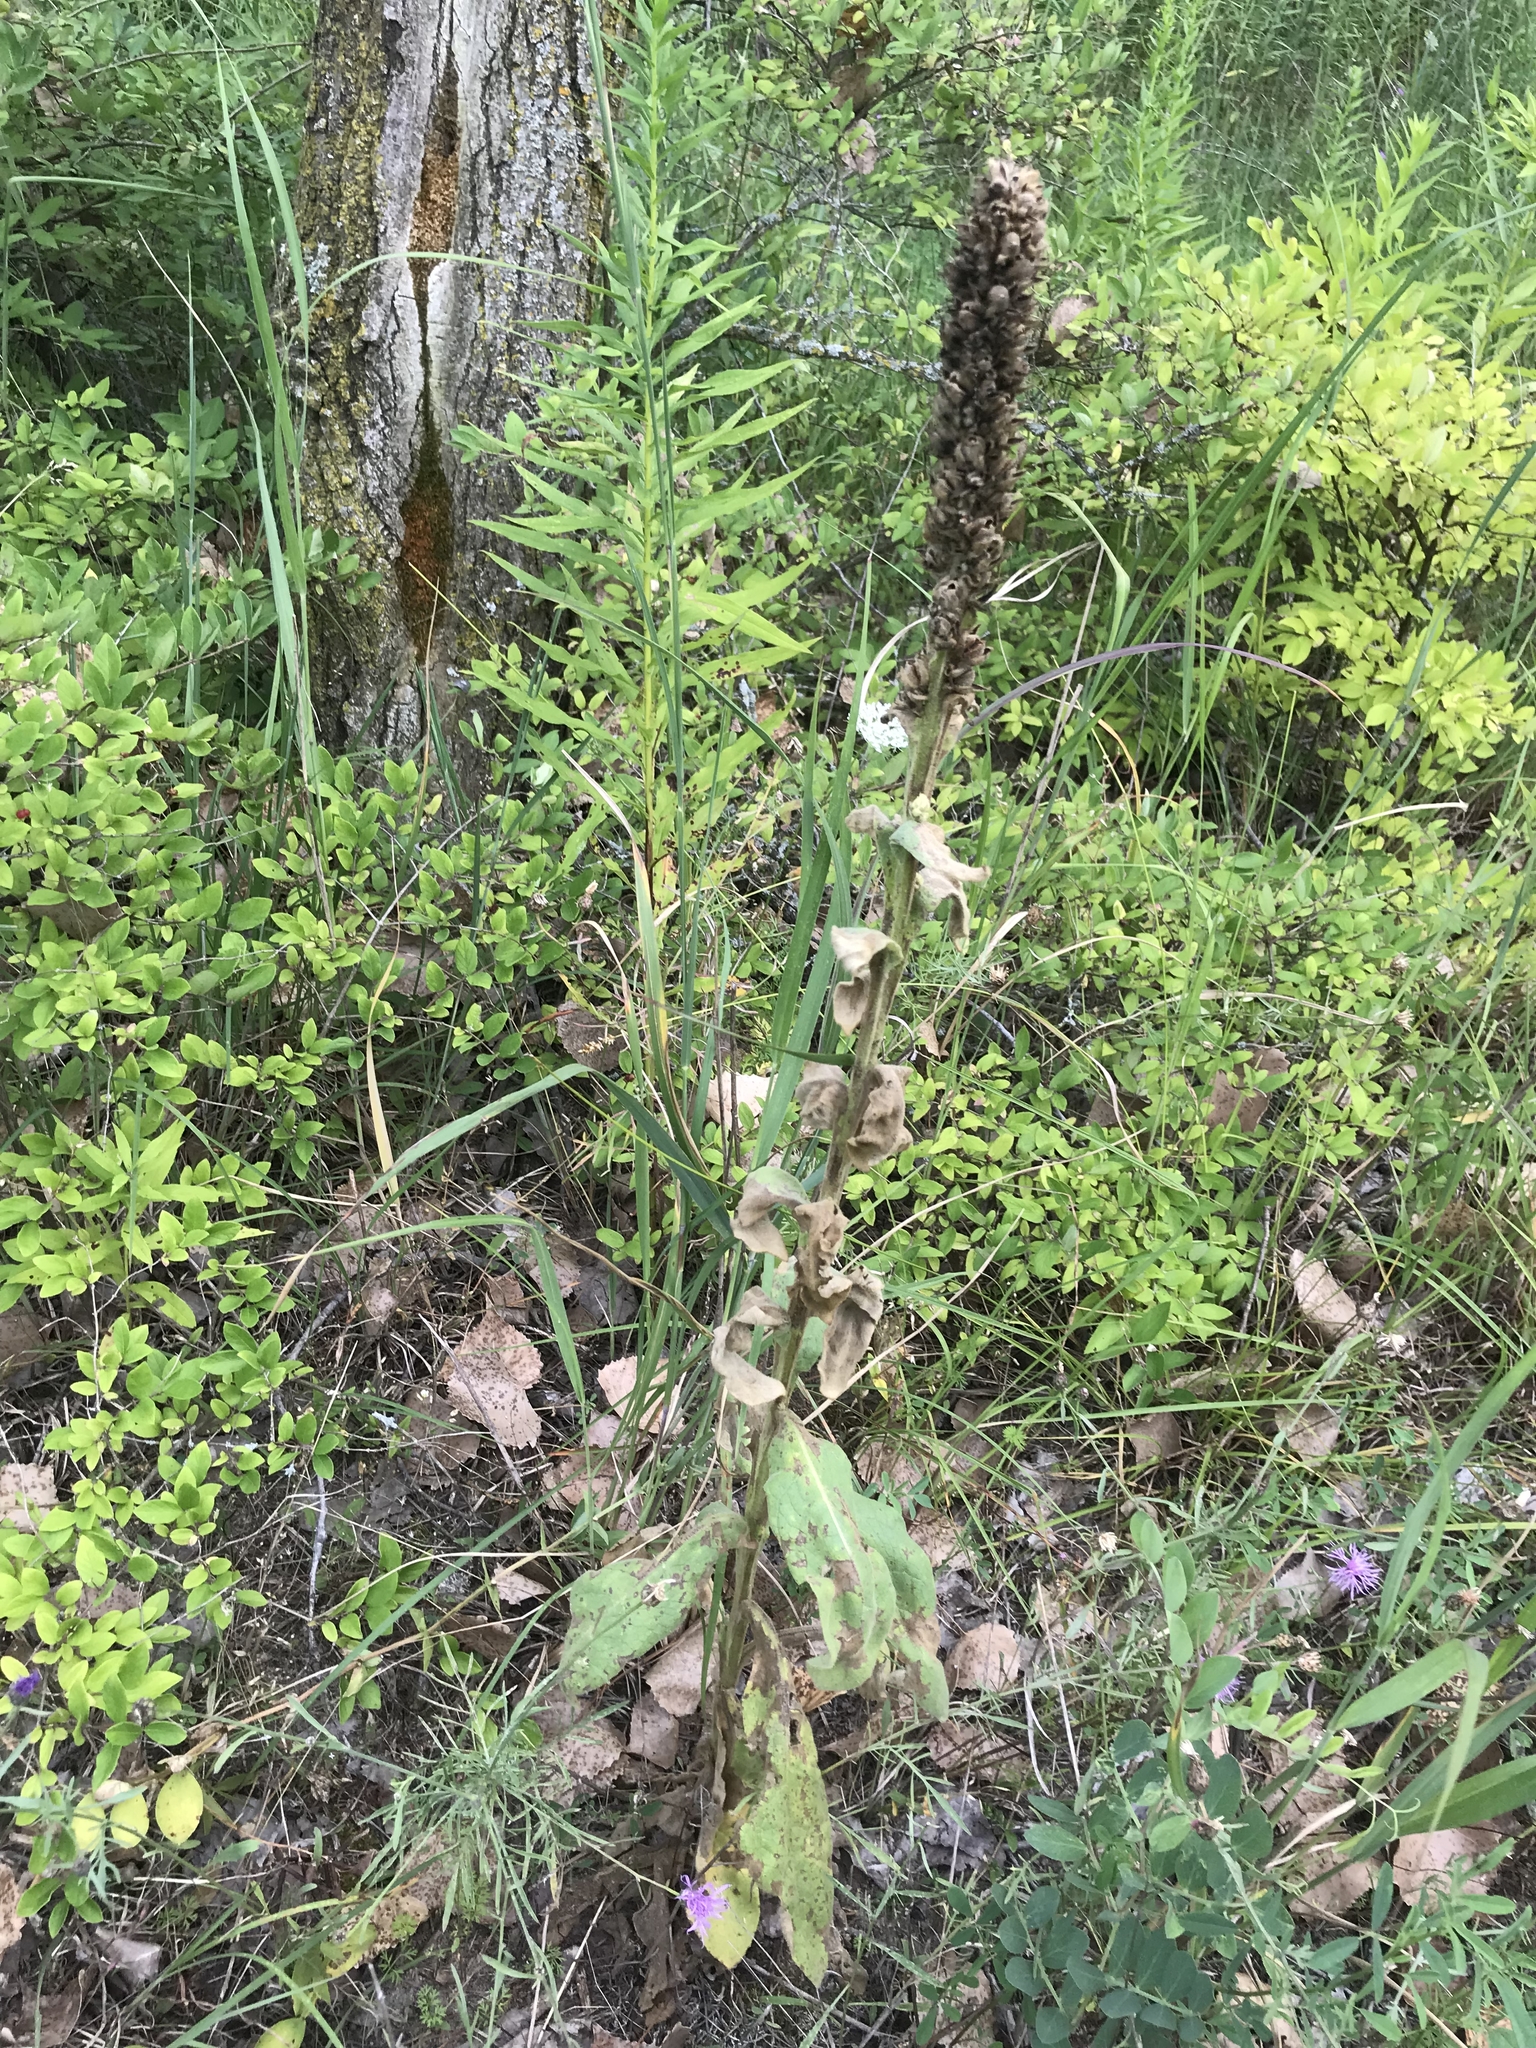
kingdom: Plantae
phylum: Tracheophyta
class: Magnoliopsida
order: Lamiales
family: Scrophulariaceae
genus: Verbascum
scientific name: Verbascum thapsus
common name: Common mullein
